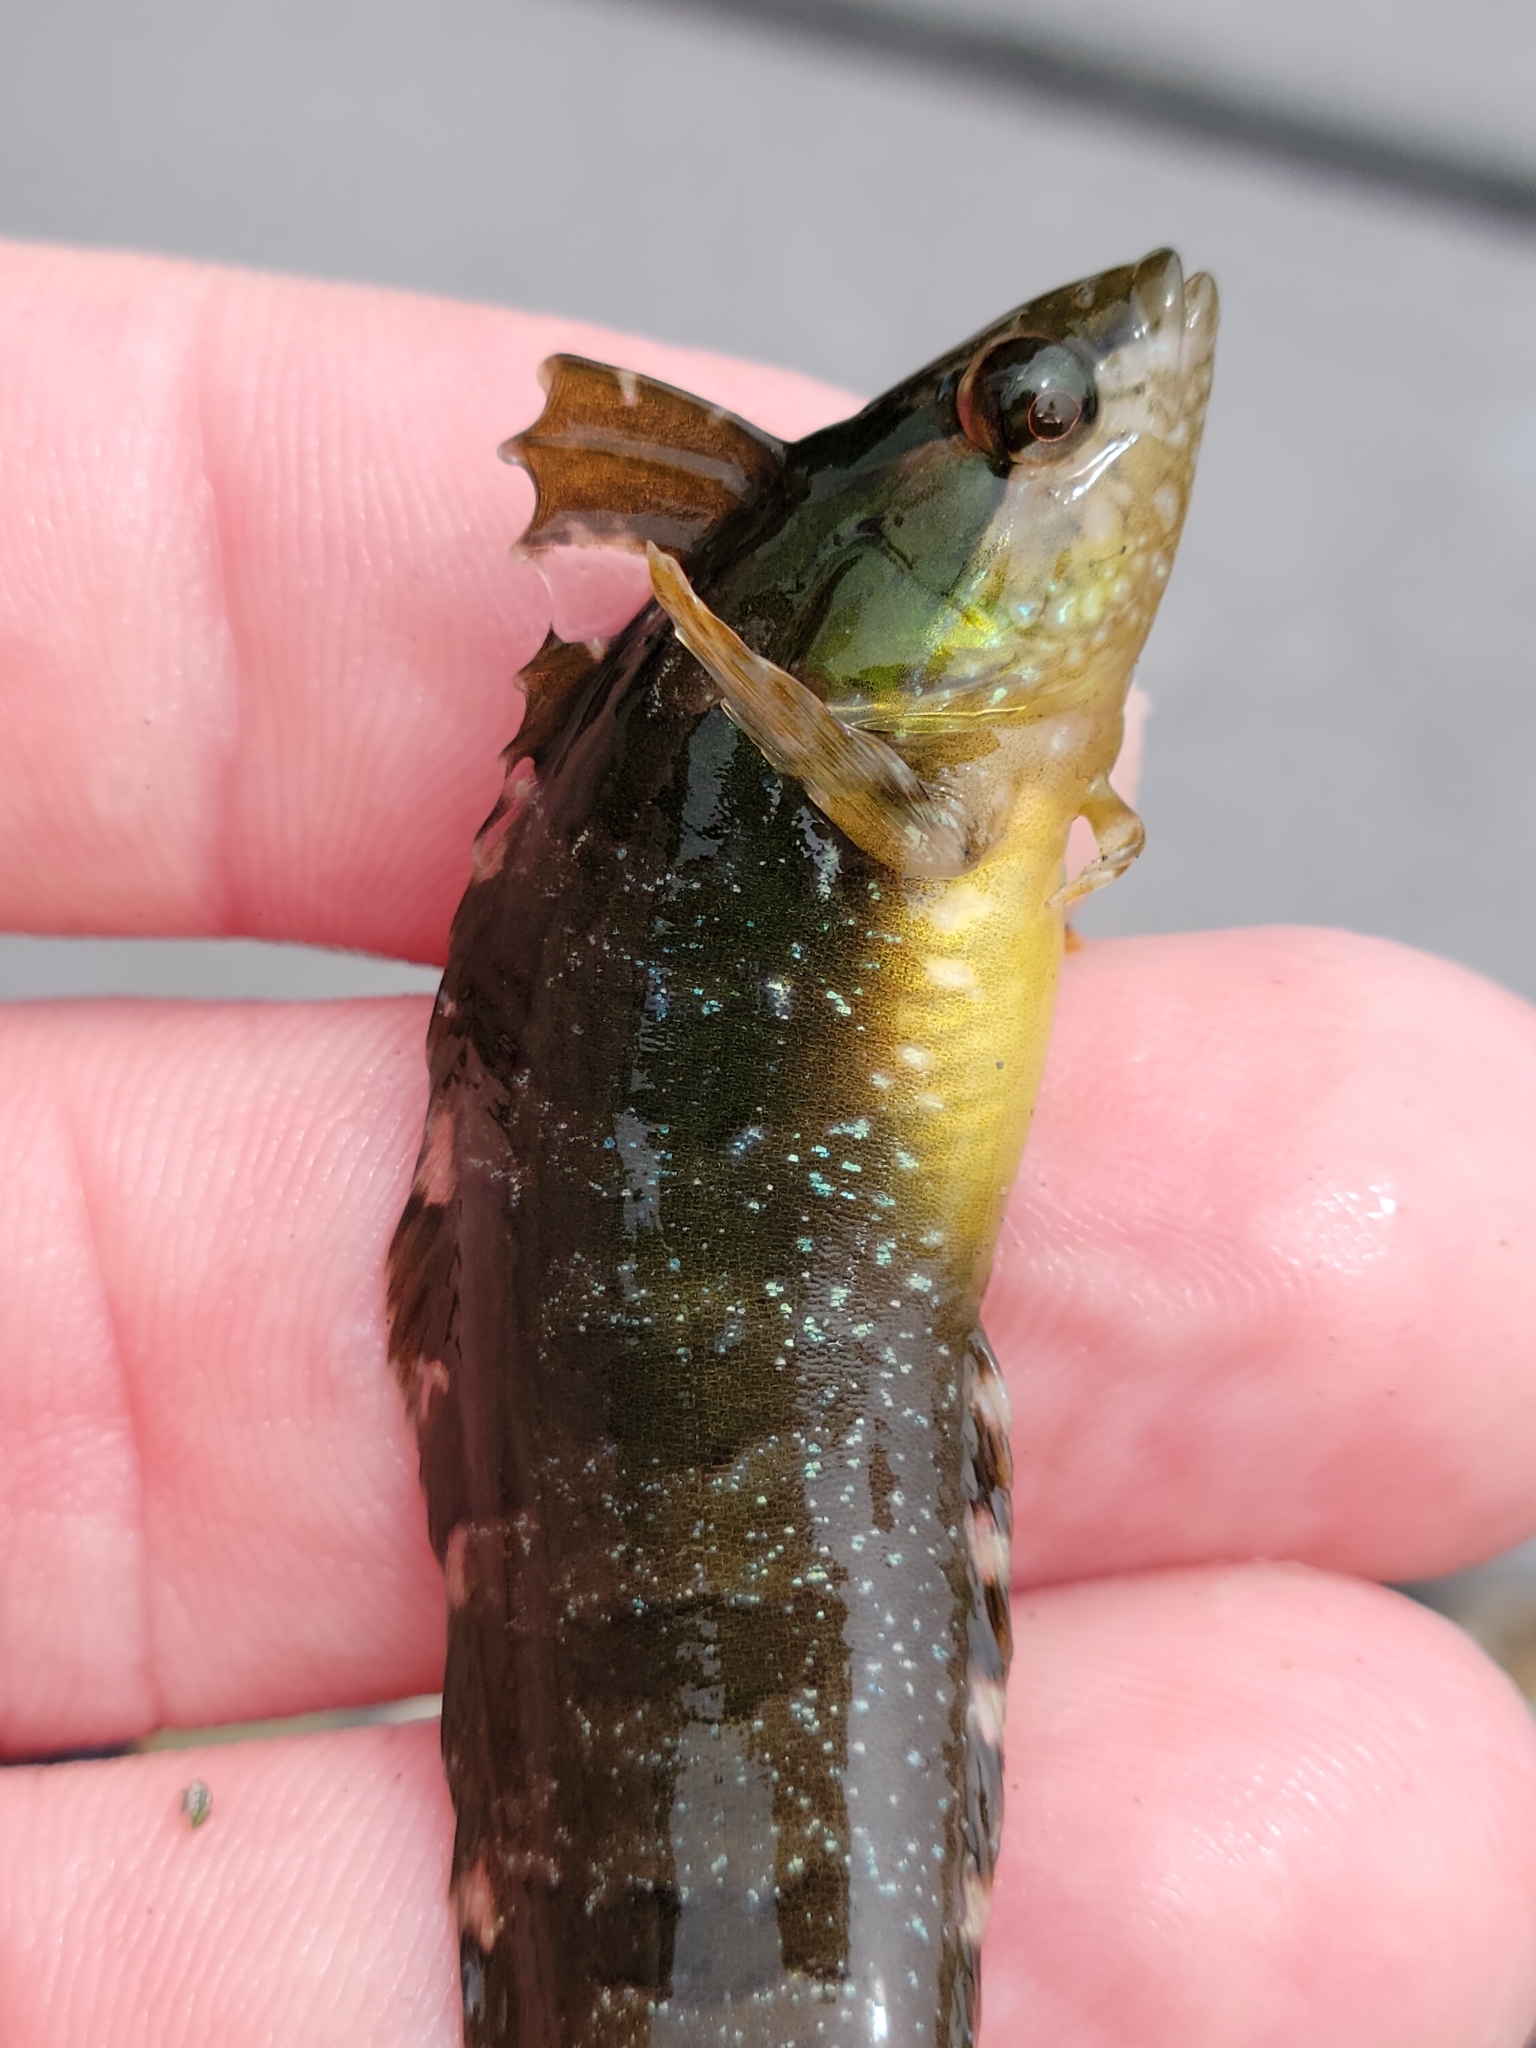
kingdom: Animalia
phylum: Chordata
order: Perciformes
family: Clinidae
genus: Gibbonsia
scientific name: Gibbonsia metzi
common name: Striped kelpfish
